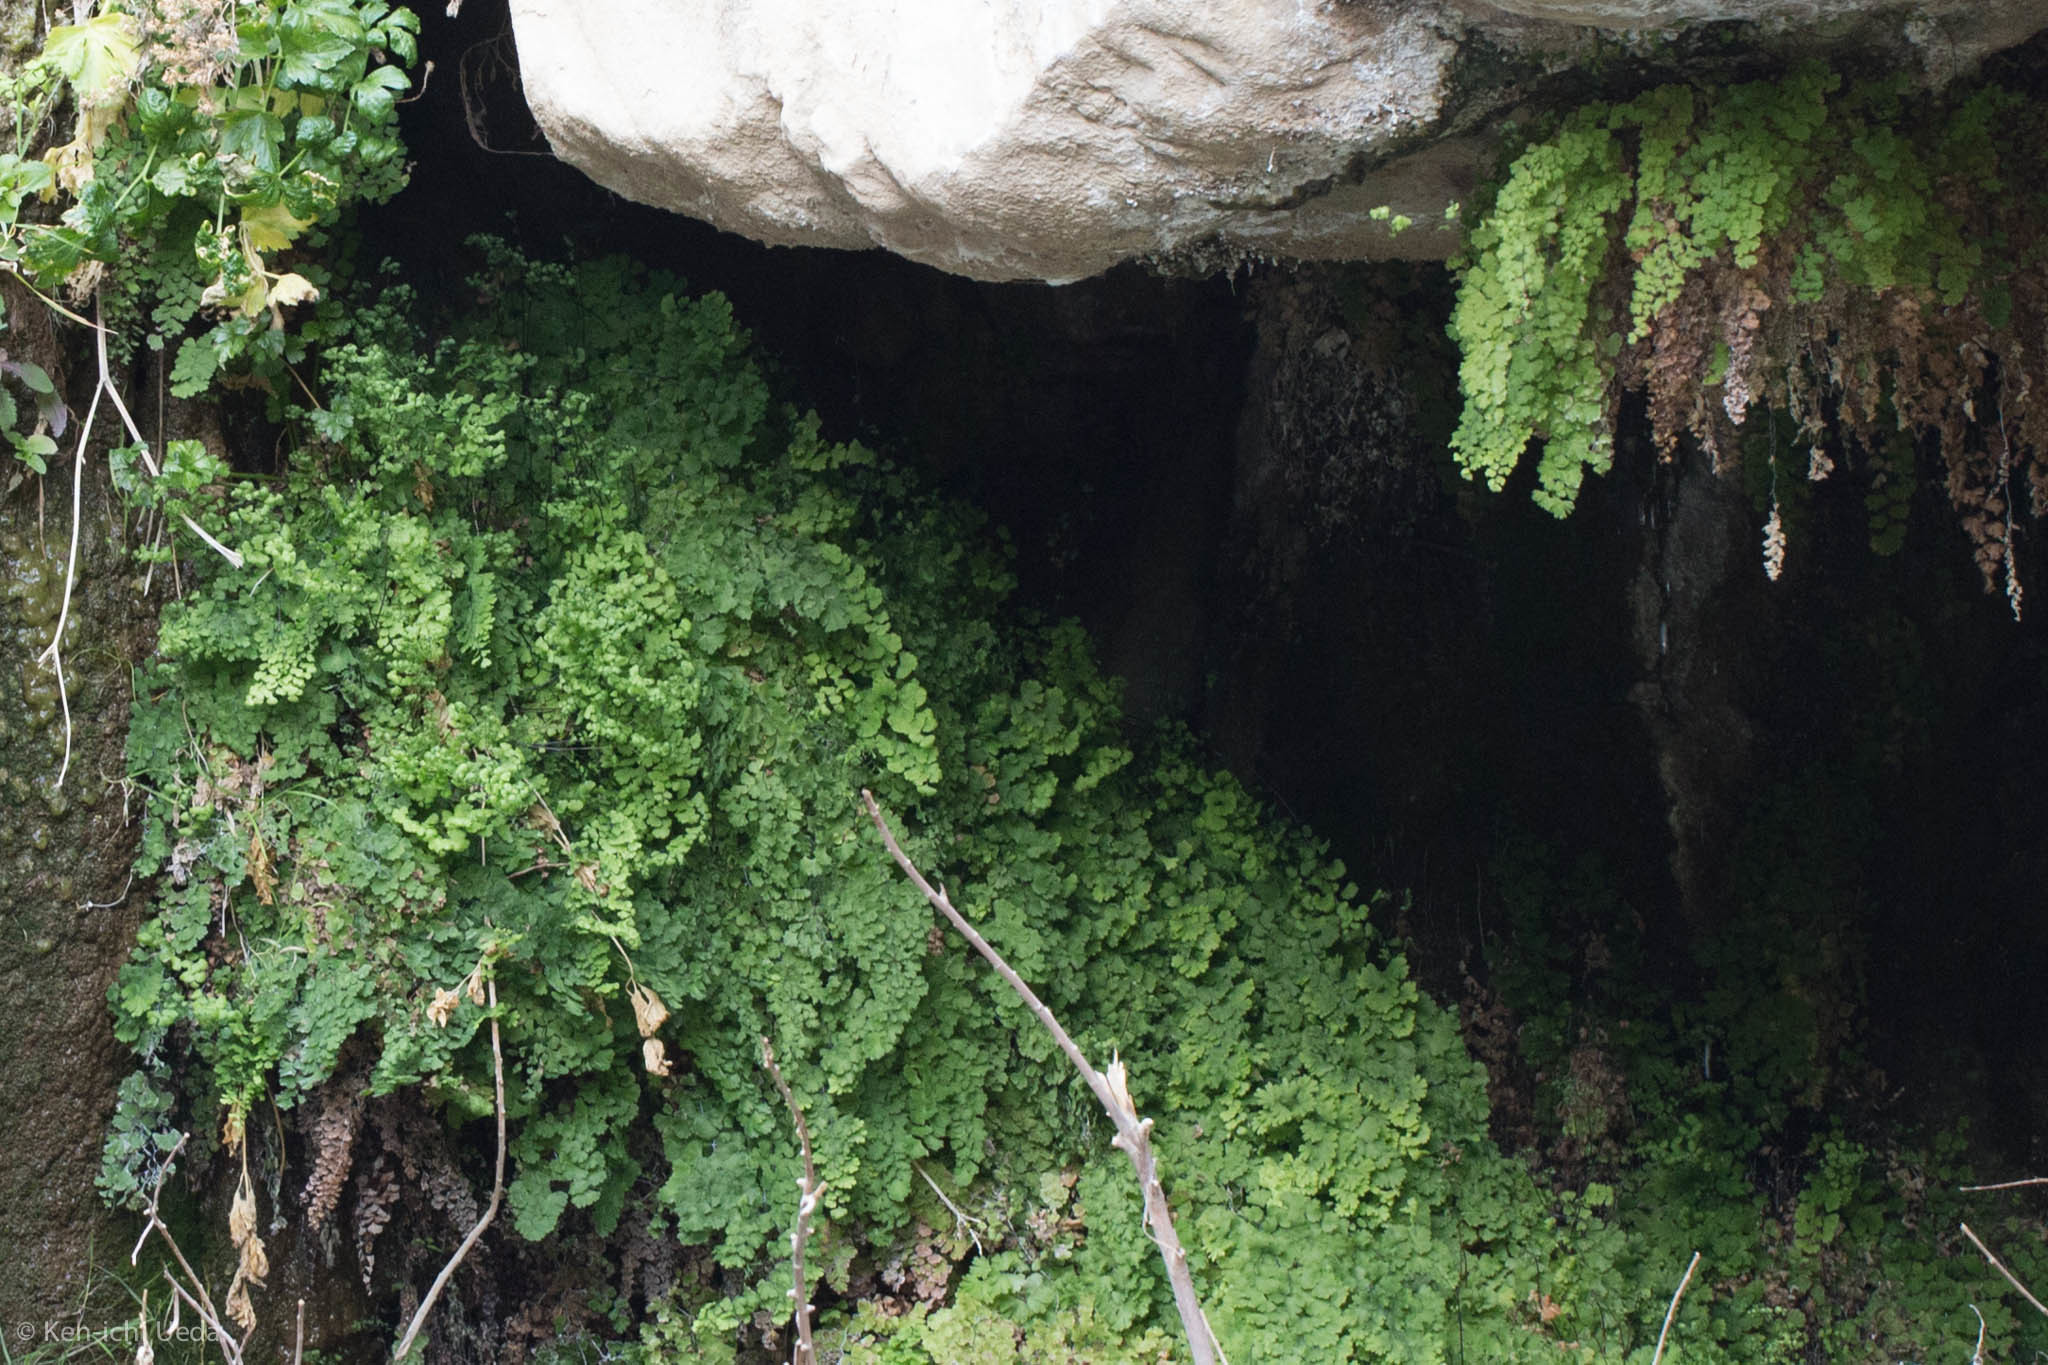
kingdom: Plantae
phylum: Tracheophyta
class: Polypodiopsida
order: Polypodiales
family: Pteridaceae
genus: Adiantum
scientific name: Adiantum capillus-veneris
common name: Maidenhair fern
